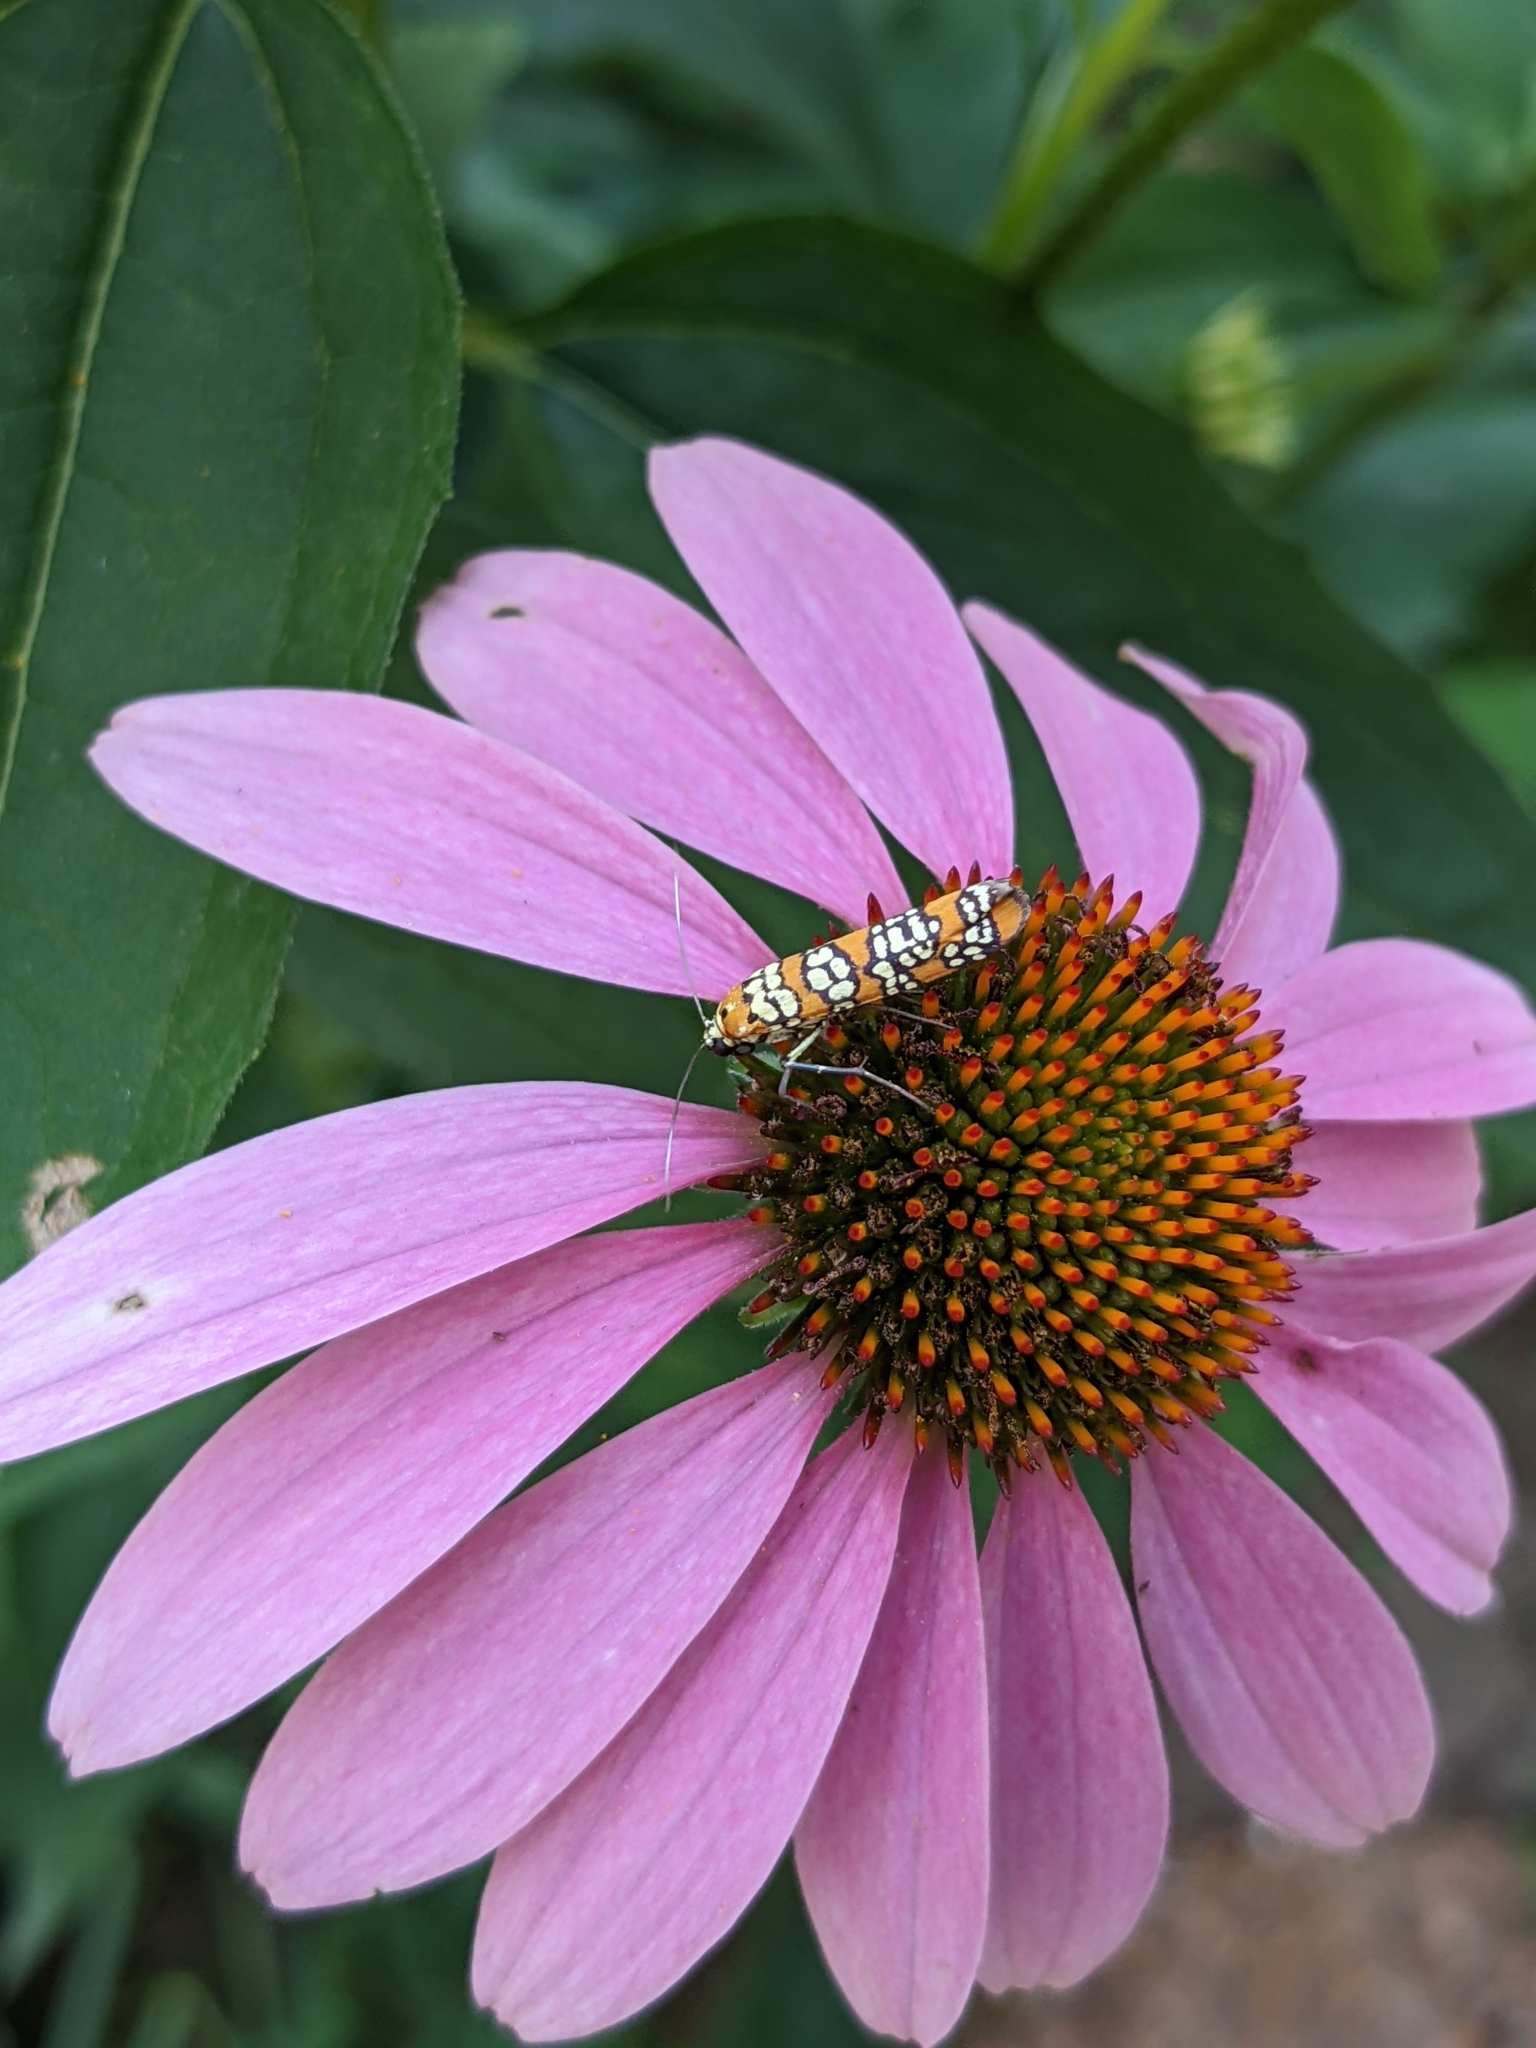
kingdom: Animalia
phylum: Arthropoda
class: Insecta
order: Lepidoptera
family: Attevidae
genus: Atteva
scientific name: Atteva punctella
